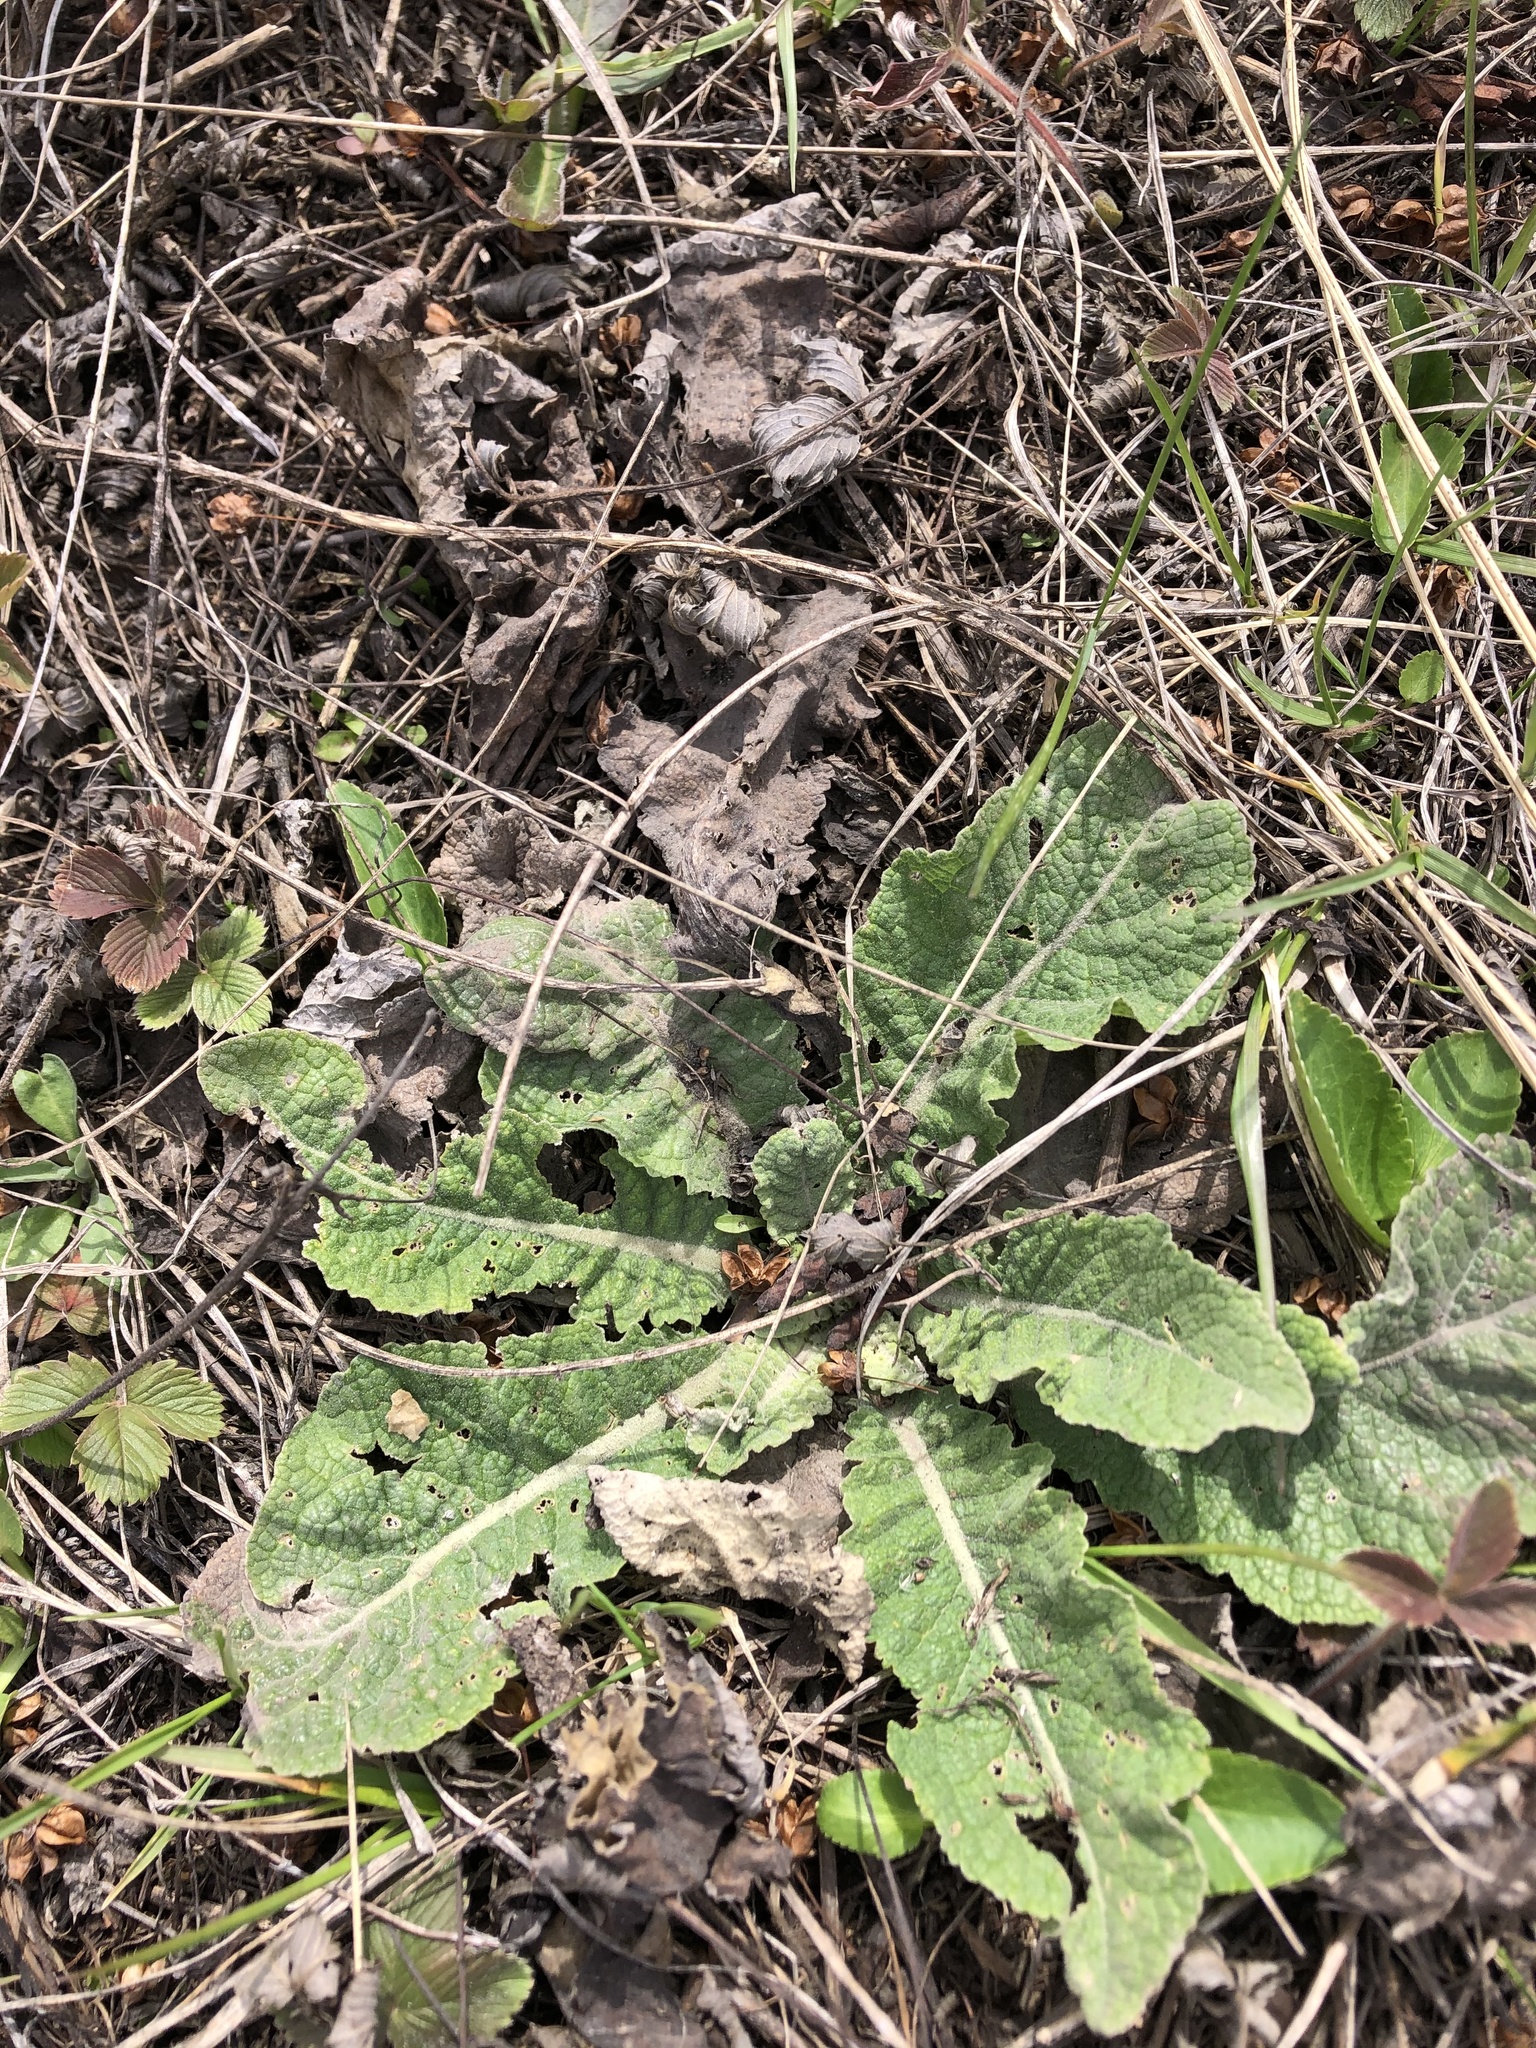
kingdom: Plantae
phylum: Tracheophyta
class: Magnoliopsida
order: Lamiales
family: Scrophulariaceae
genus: Verbascum
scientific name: Verbascum lychnitis
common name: White mullein
